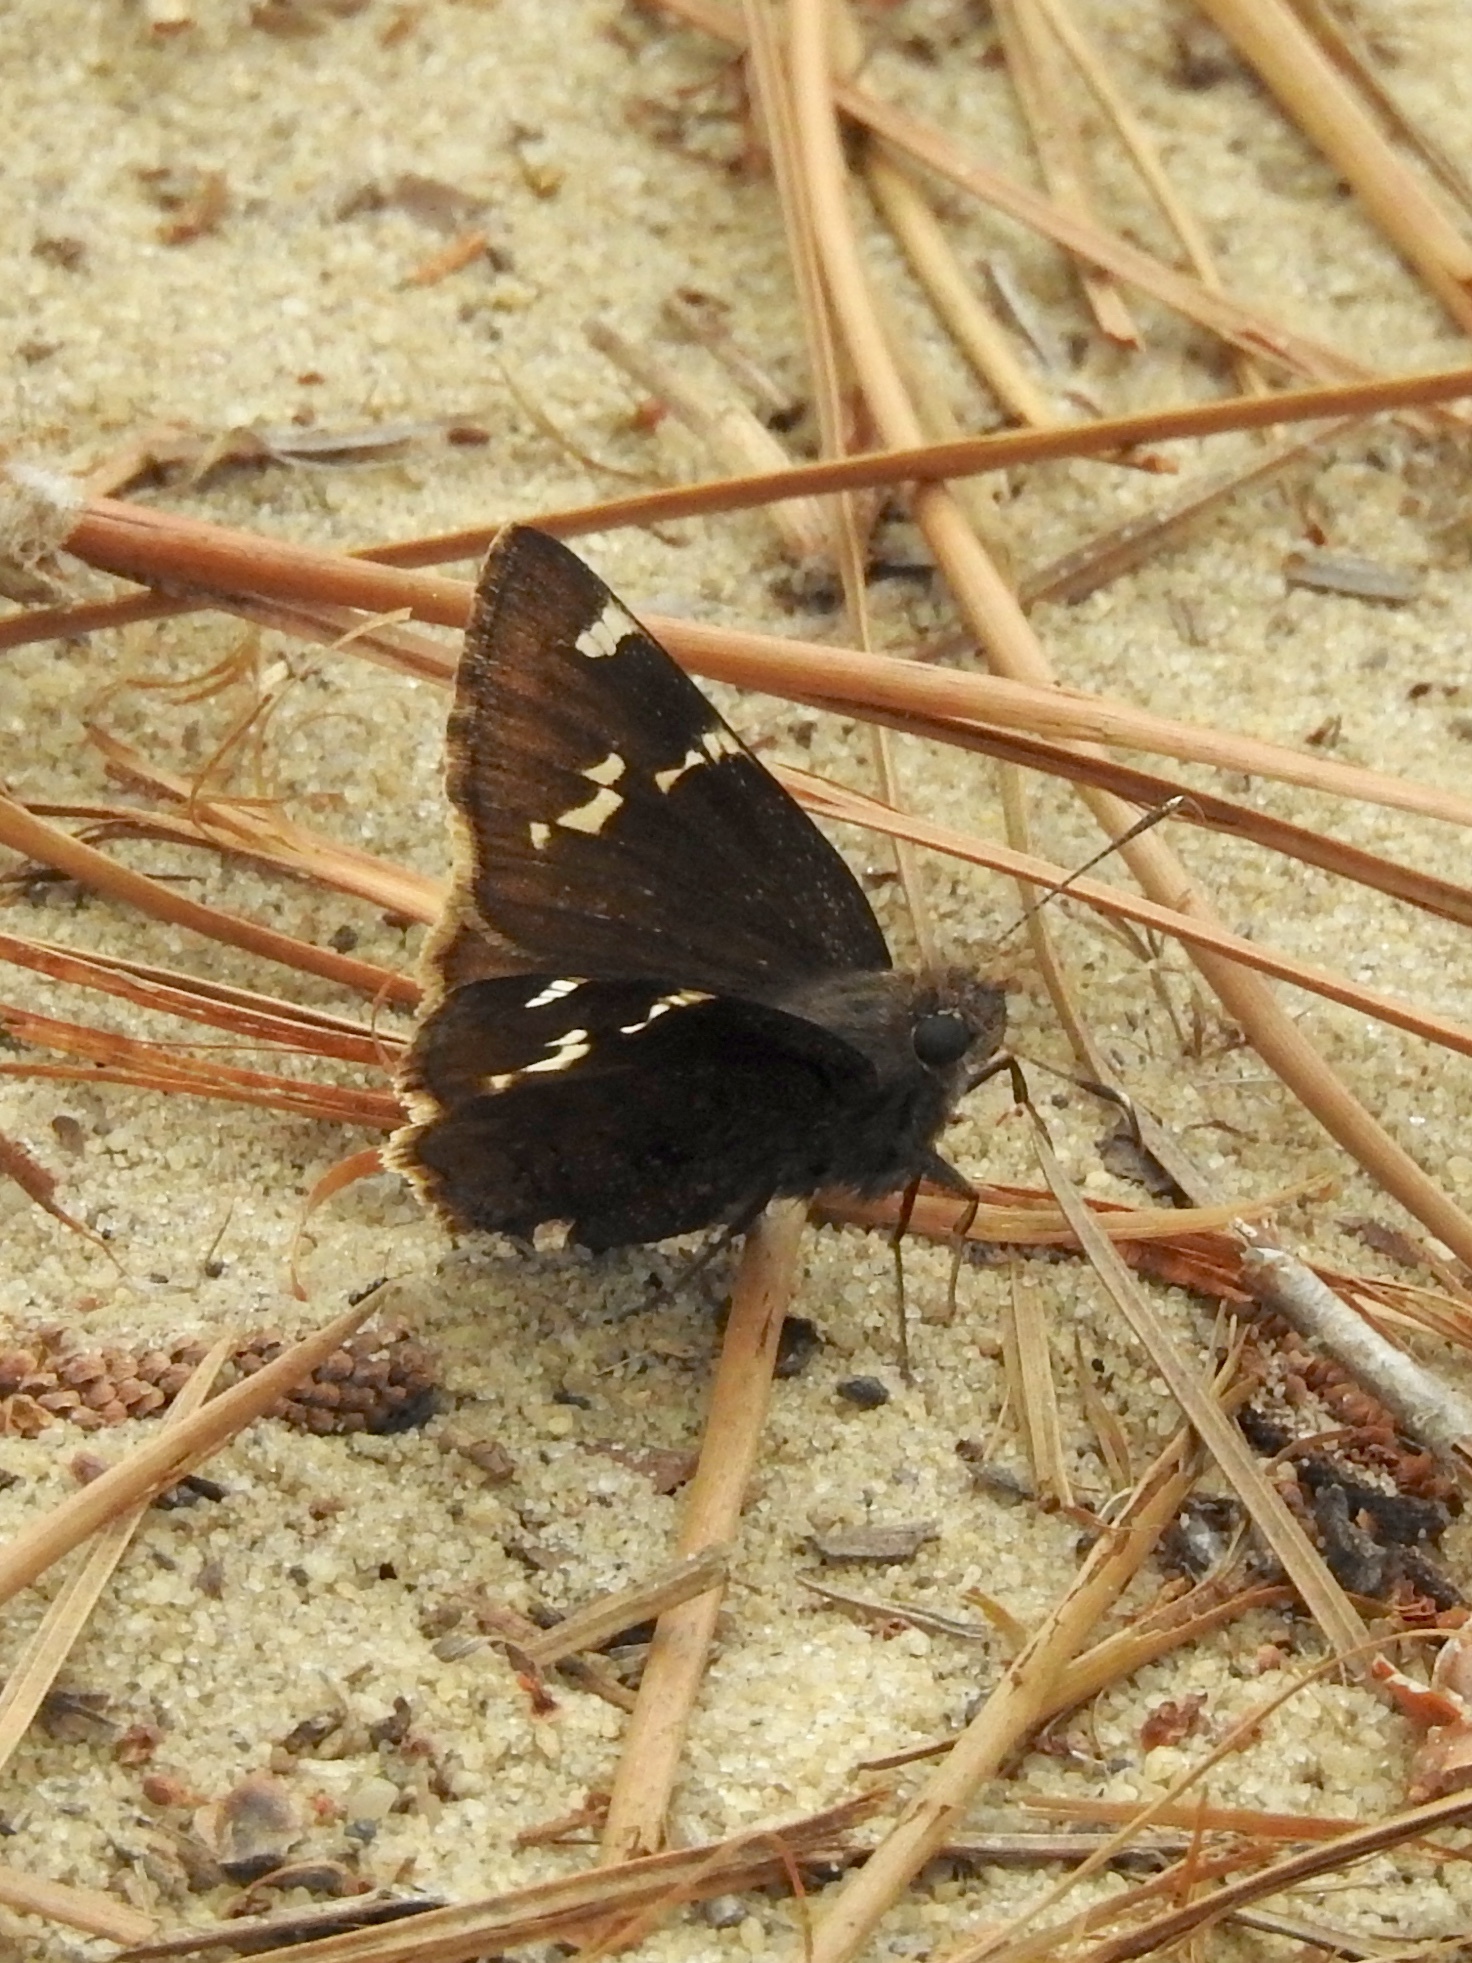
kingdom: Animalia
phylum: Arthropoda
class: Insecta
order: Lepidoptera
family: Hesperiidae
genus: Thorybes
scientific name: Thorybes daunus
